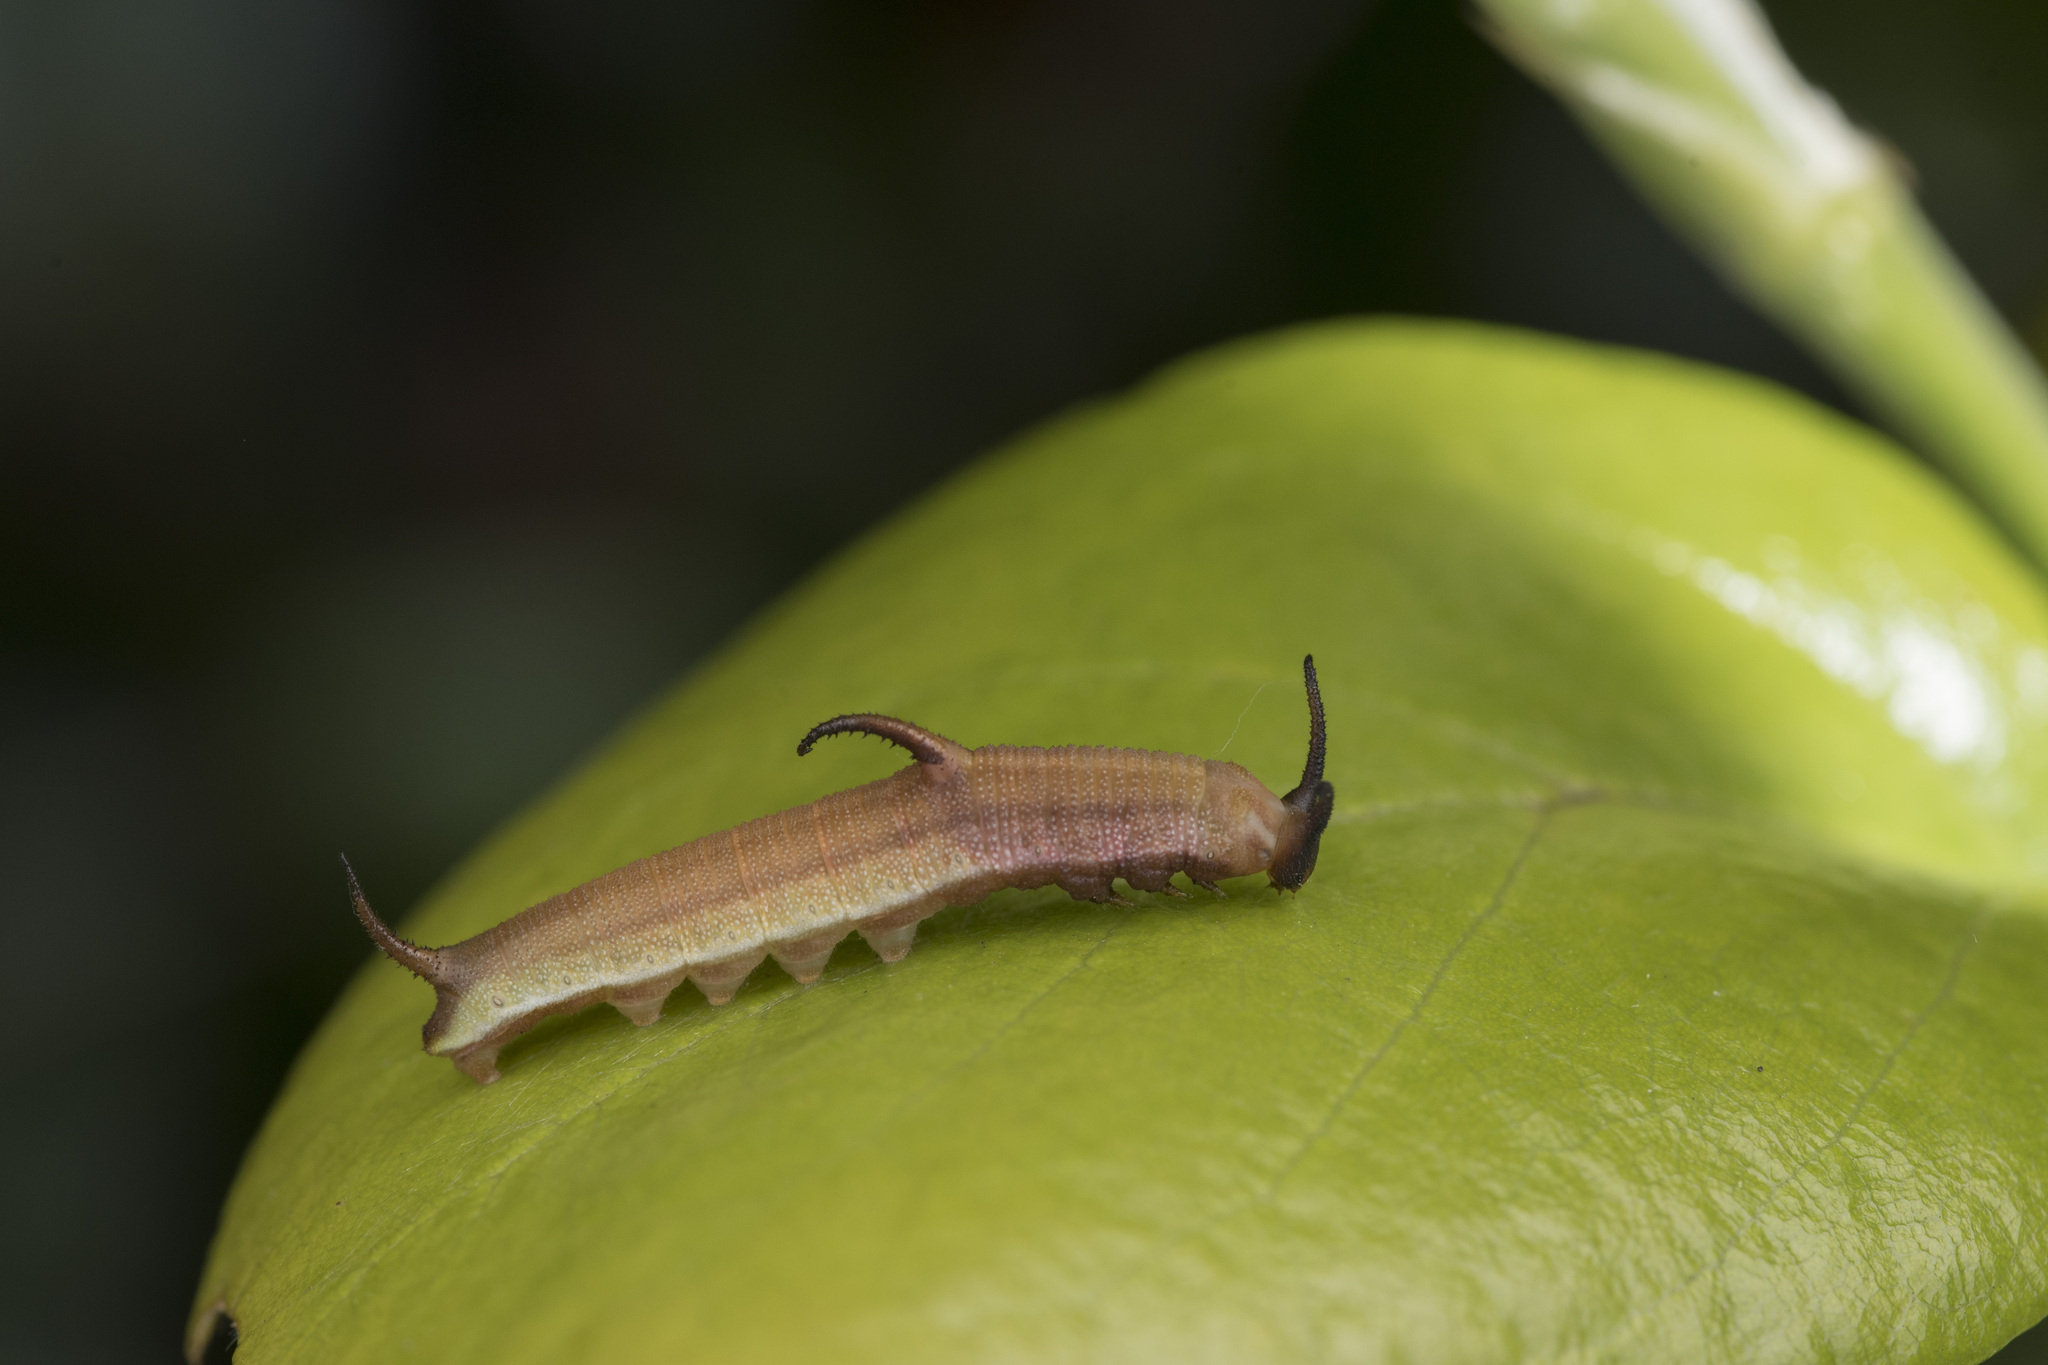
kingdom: Animalia
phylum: Arthropoda
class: Insecta
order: Lepidoptera
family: Nymphalidae
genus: Cyrestis
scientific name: Cyrestis thyodamas
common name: Common mapwing
